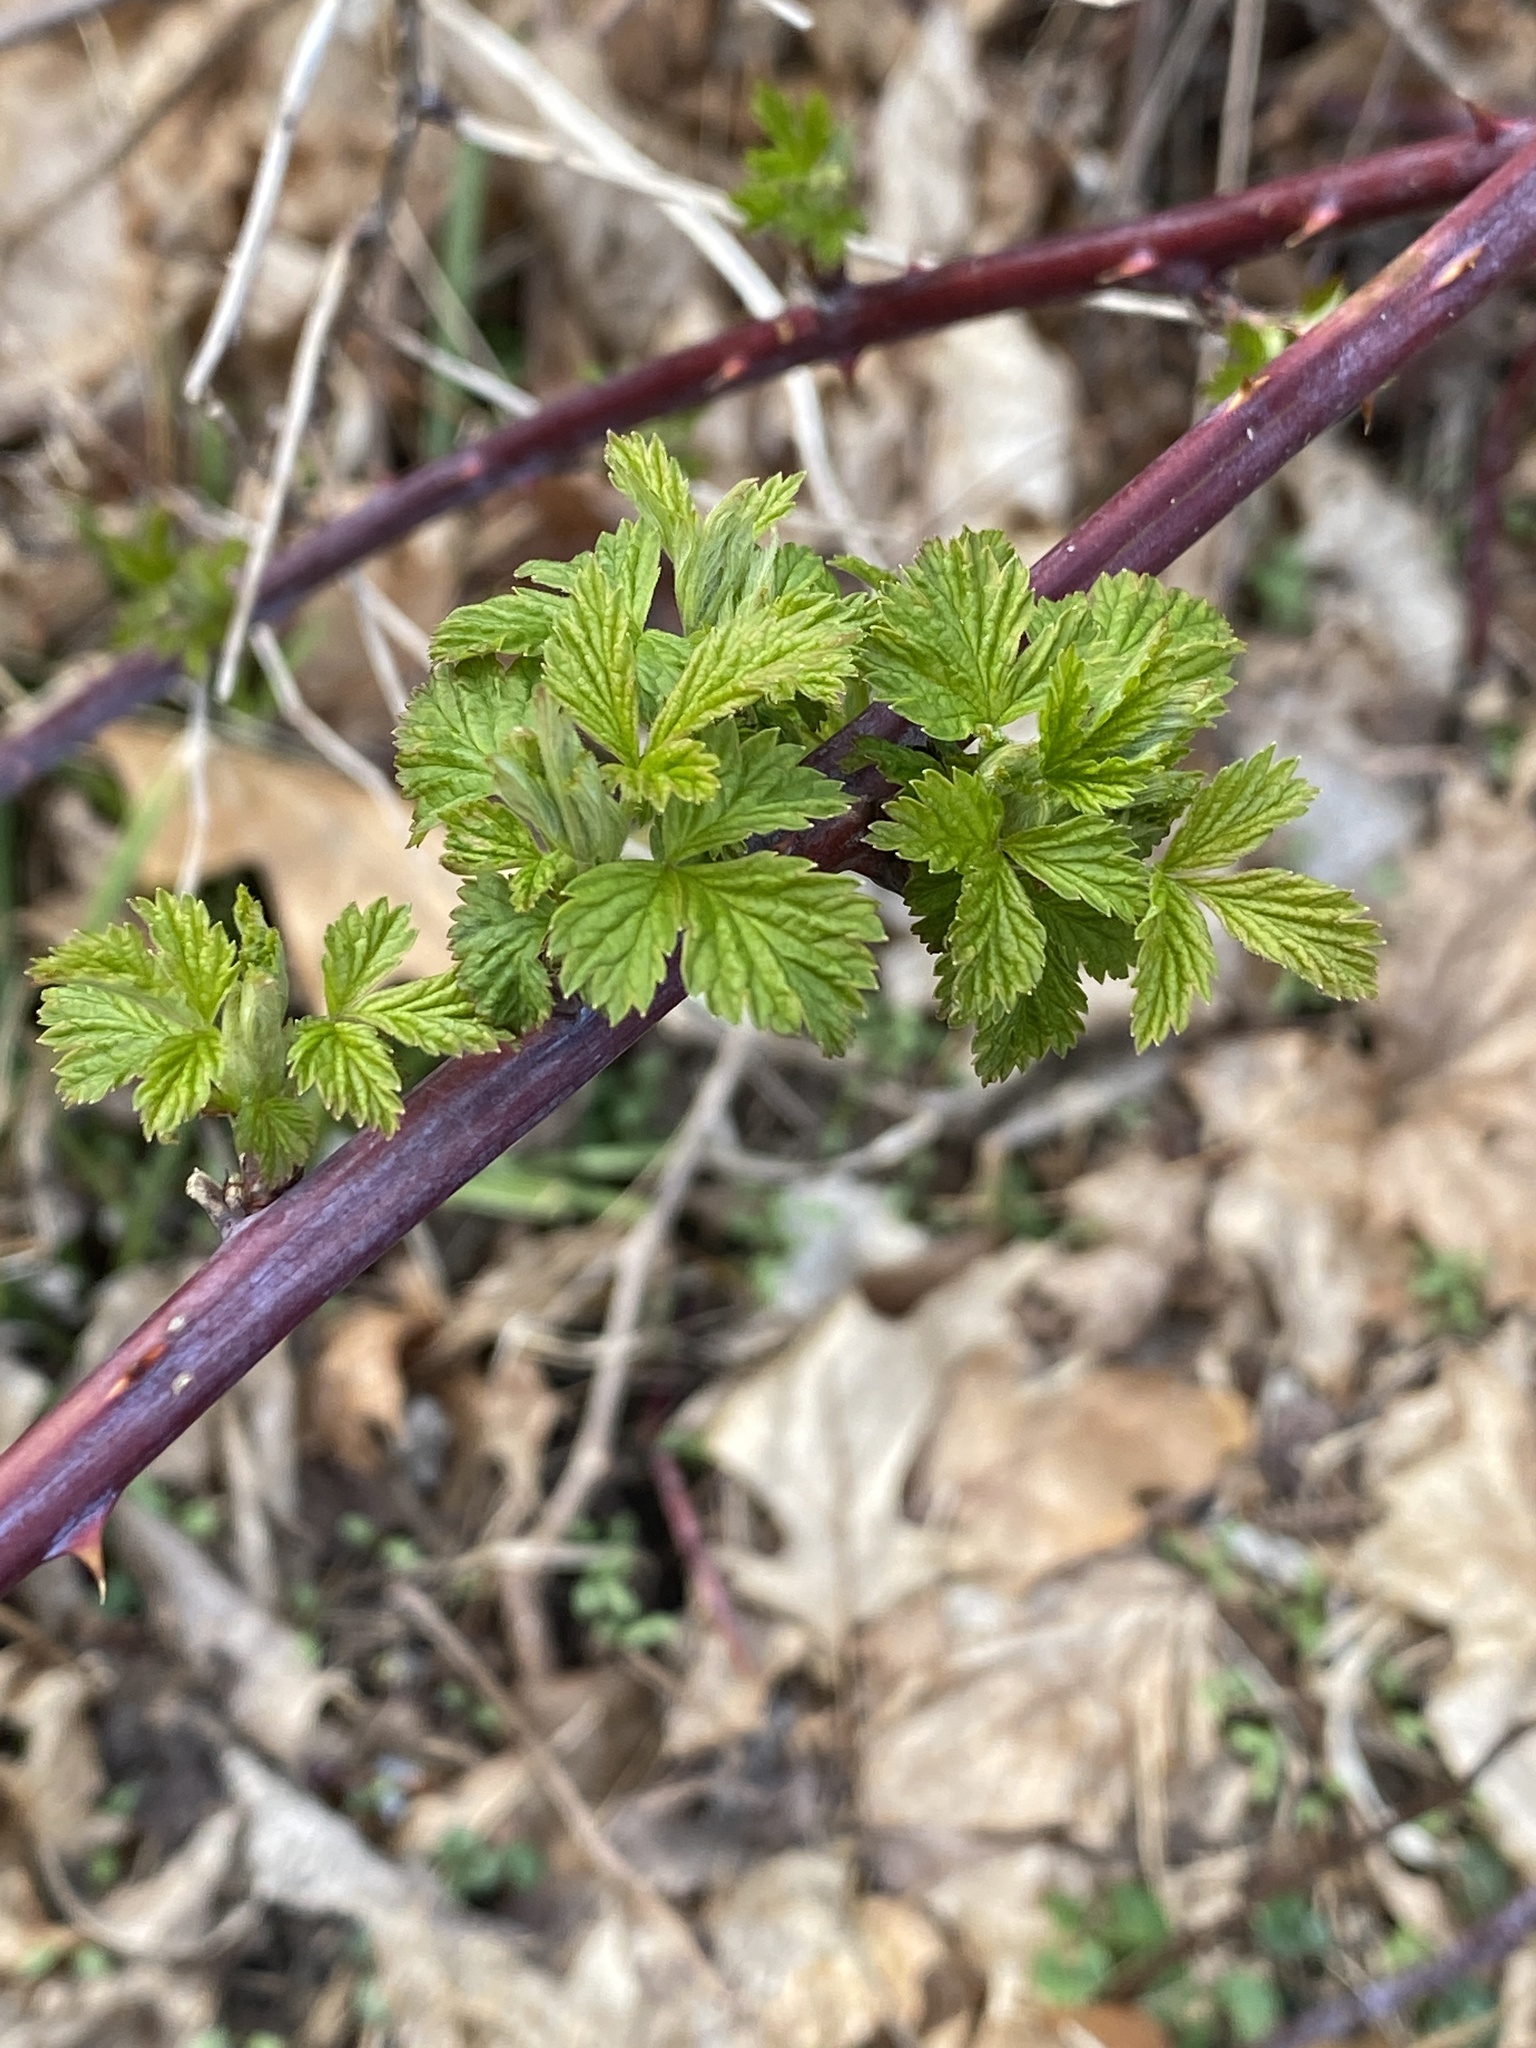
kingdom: Plantae
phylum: Tracheophyta
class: Magnoliopsida
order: Rosales
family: Rosaceae
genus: Rubus
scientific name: Rubus occidentalis
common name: Black raspberry
